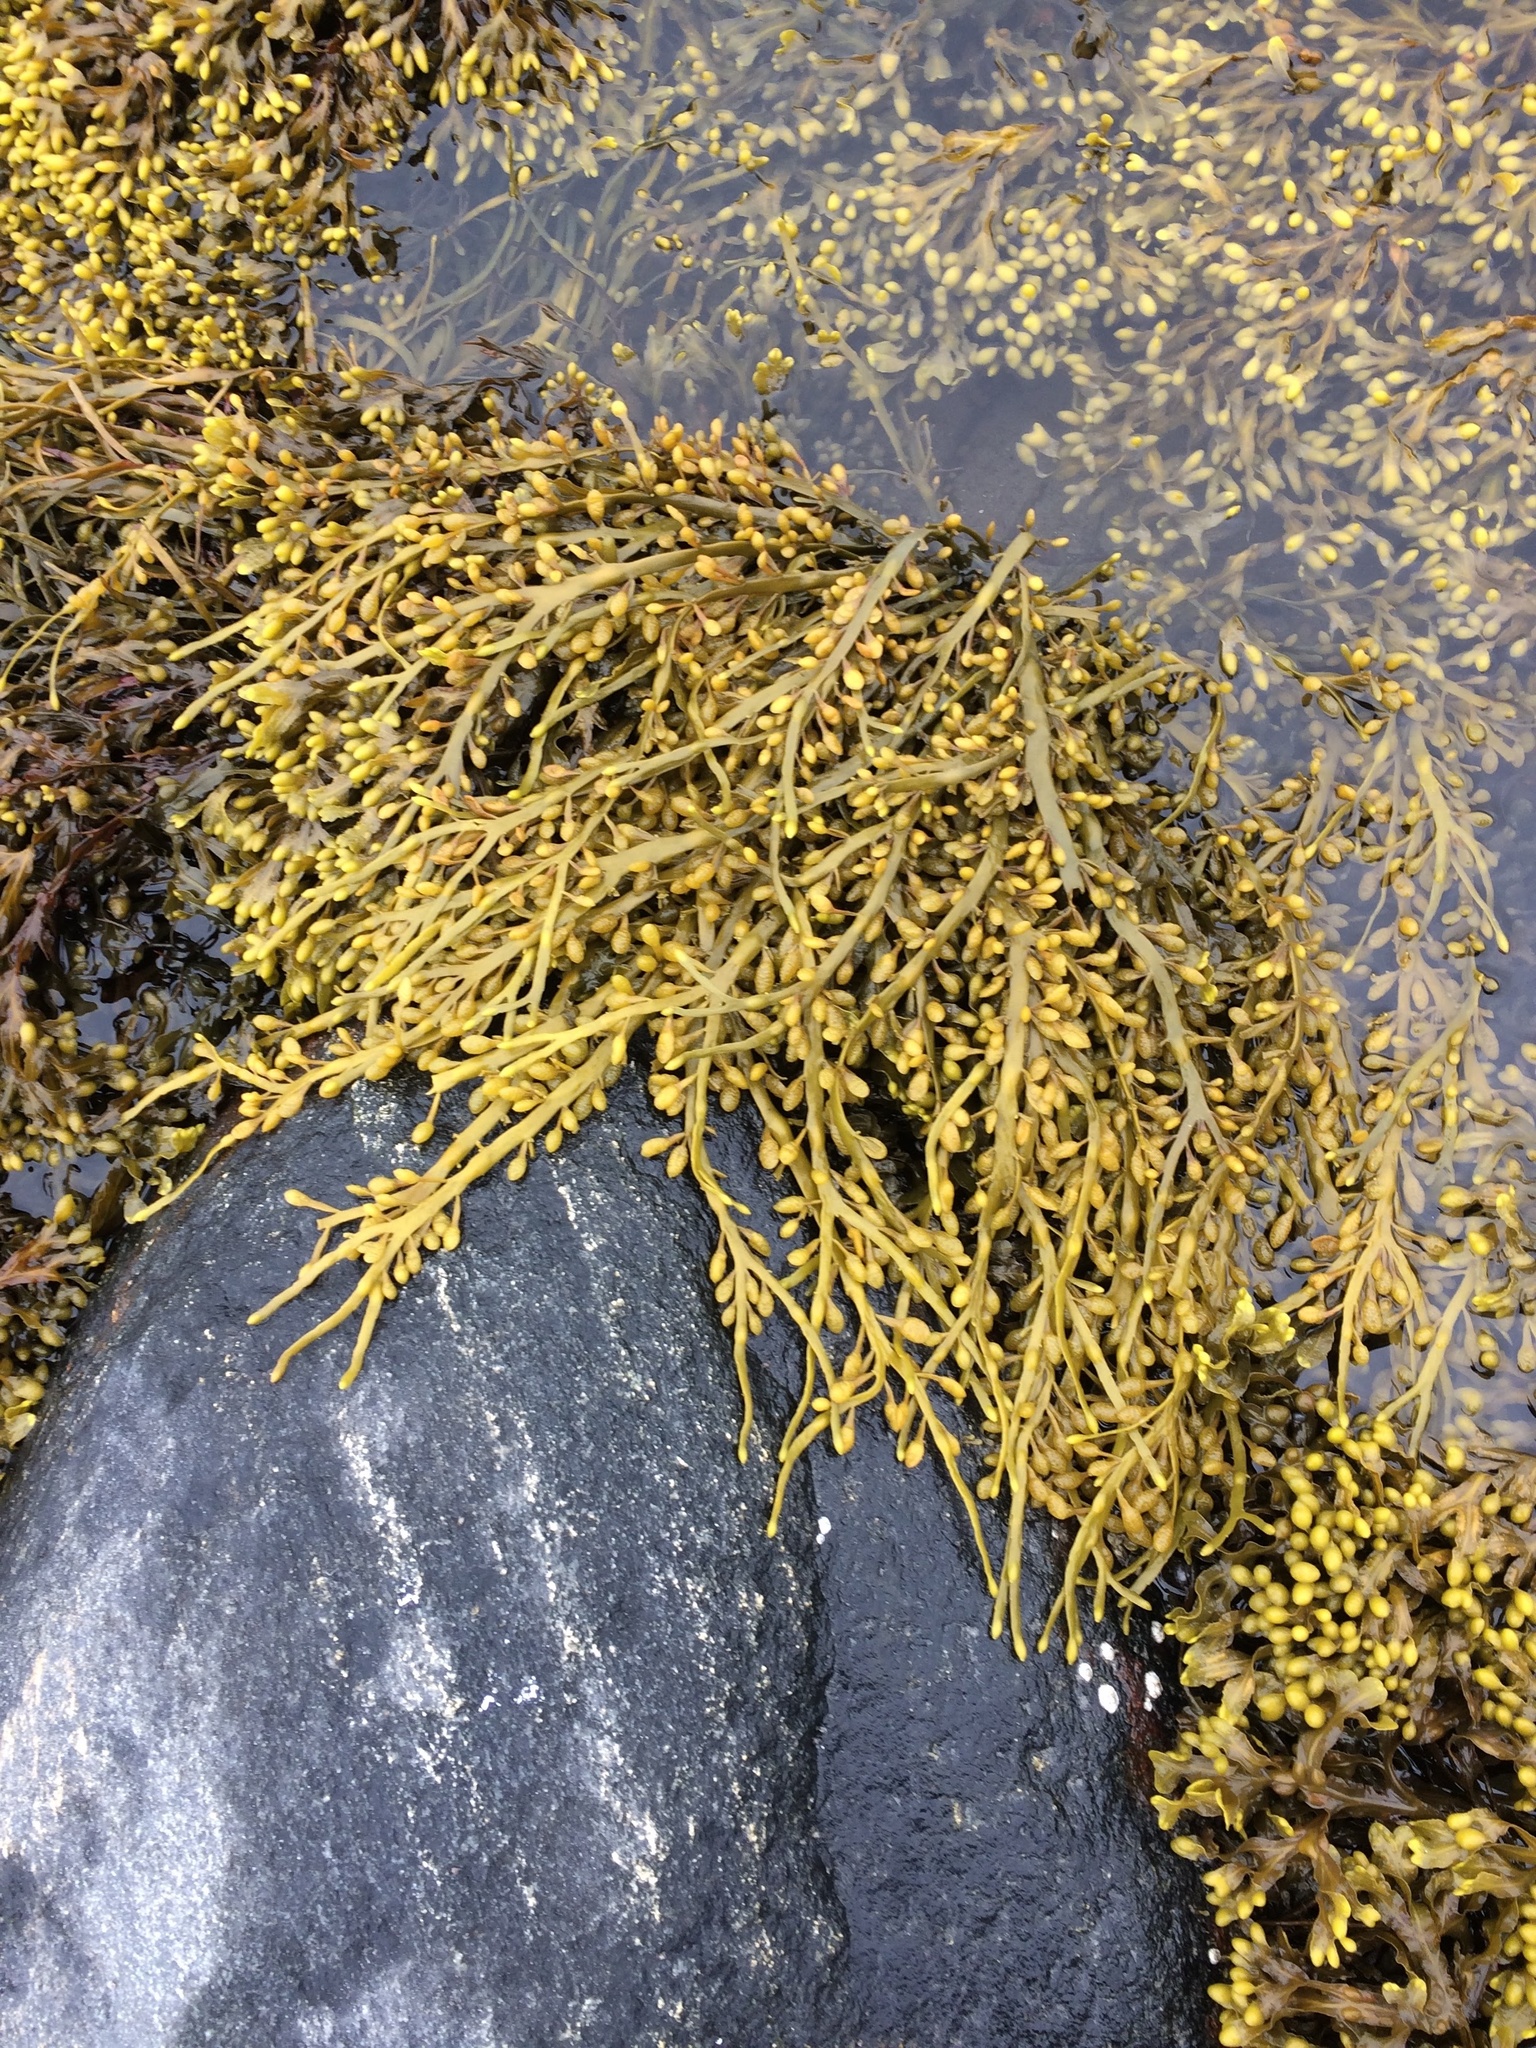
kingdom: Chromista
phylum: Ochrophyta
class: Phaeophyceae
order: Fucales
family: Fucaceae
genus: Ascophyllum
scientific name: Ascophyllum nodosum
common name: Knotted wrack
